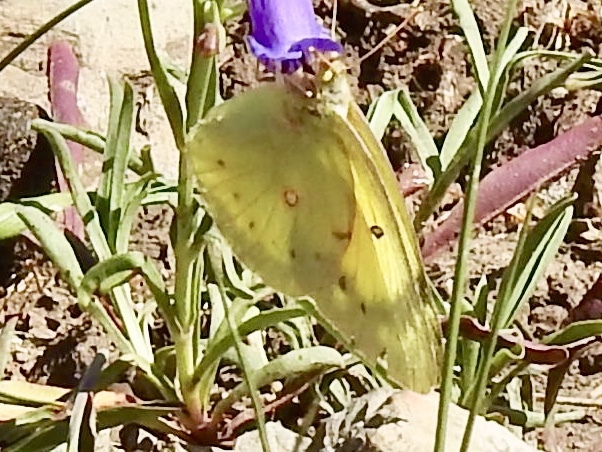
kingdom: Animalia
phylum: Arthropoda
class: Insecta
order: Lepidoptera
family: Pieridae
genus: Colias
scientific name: Colias eurytheme
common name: Alfalfa butterfly
